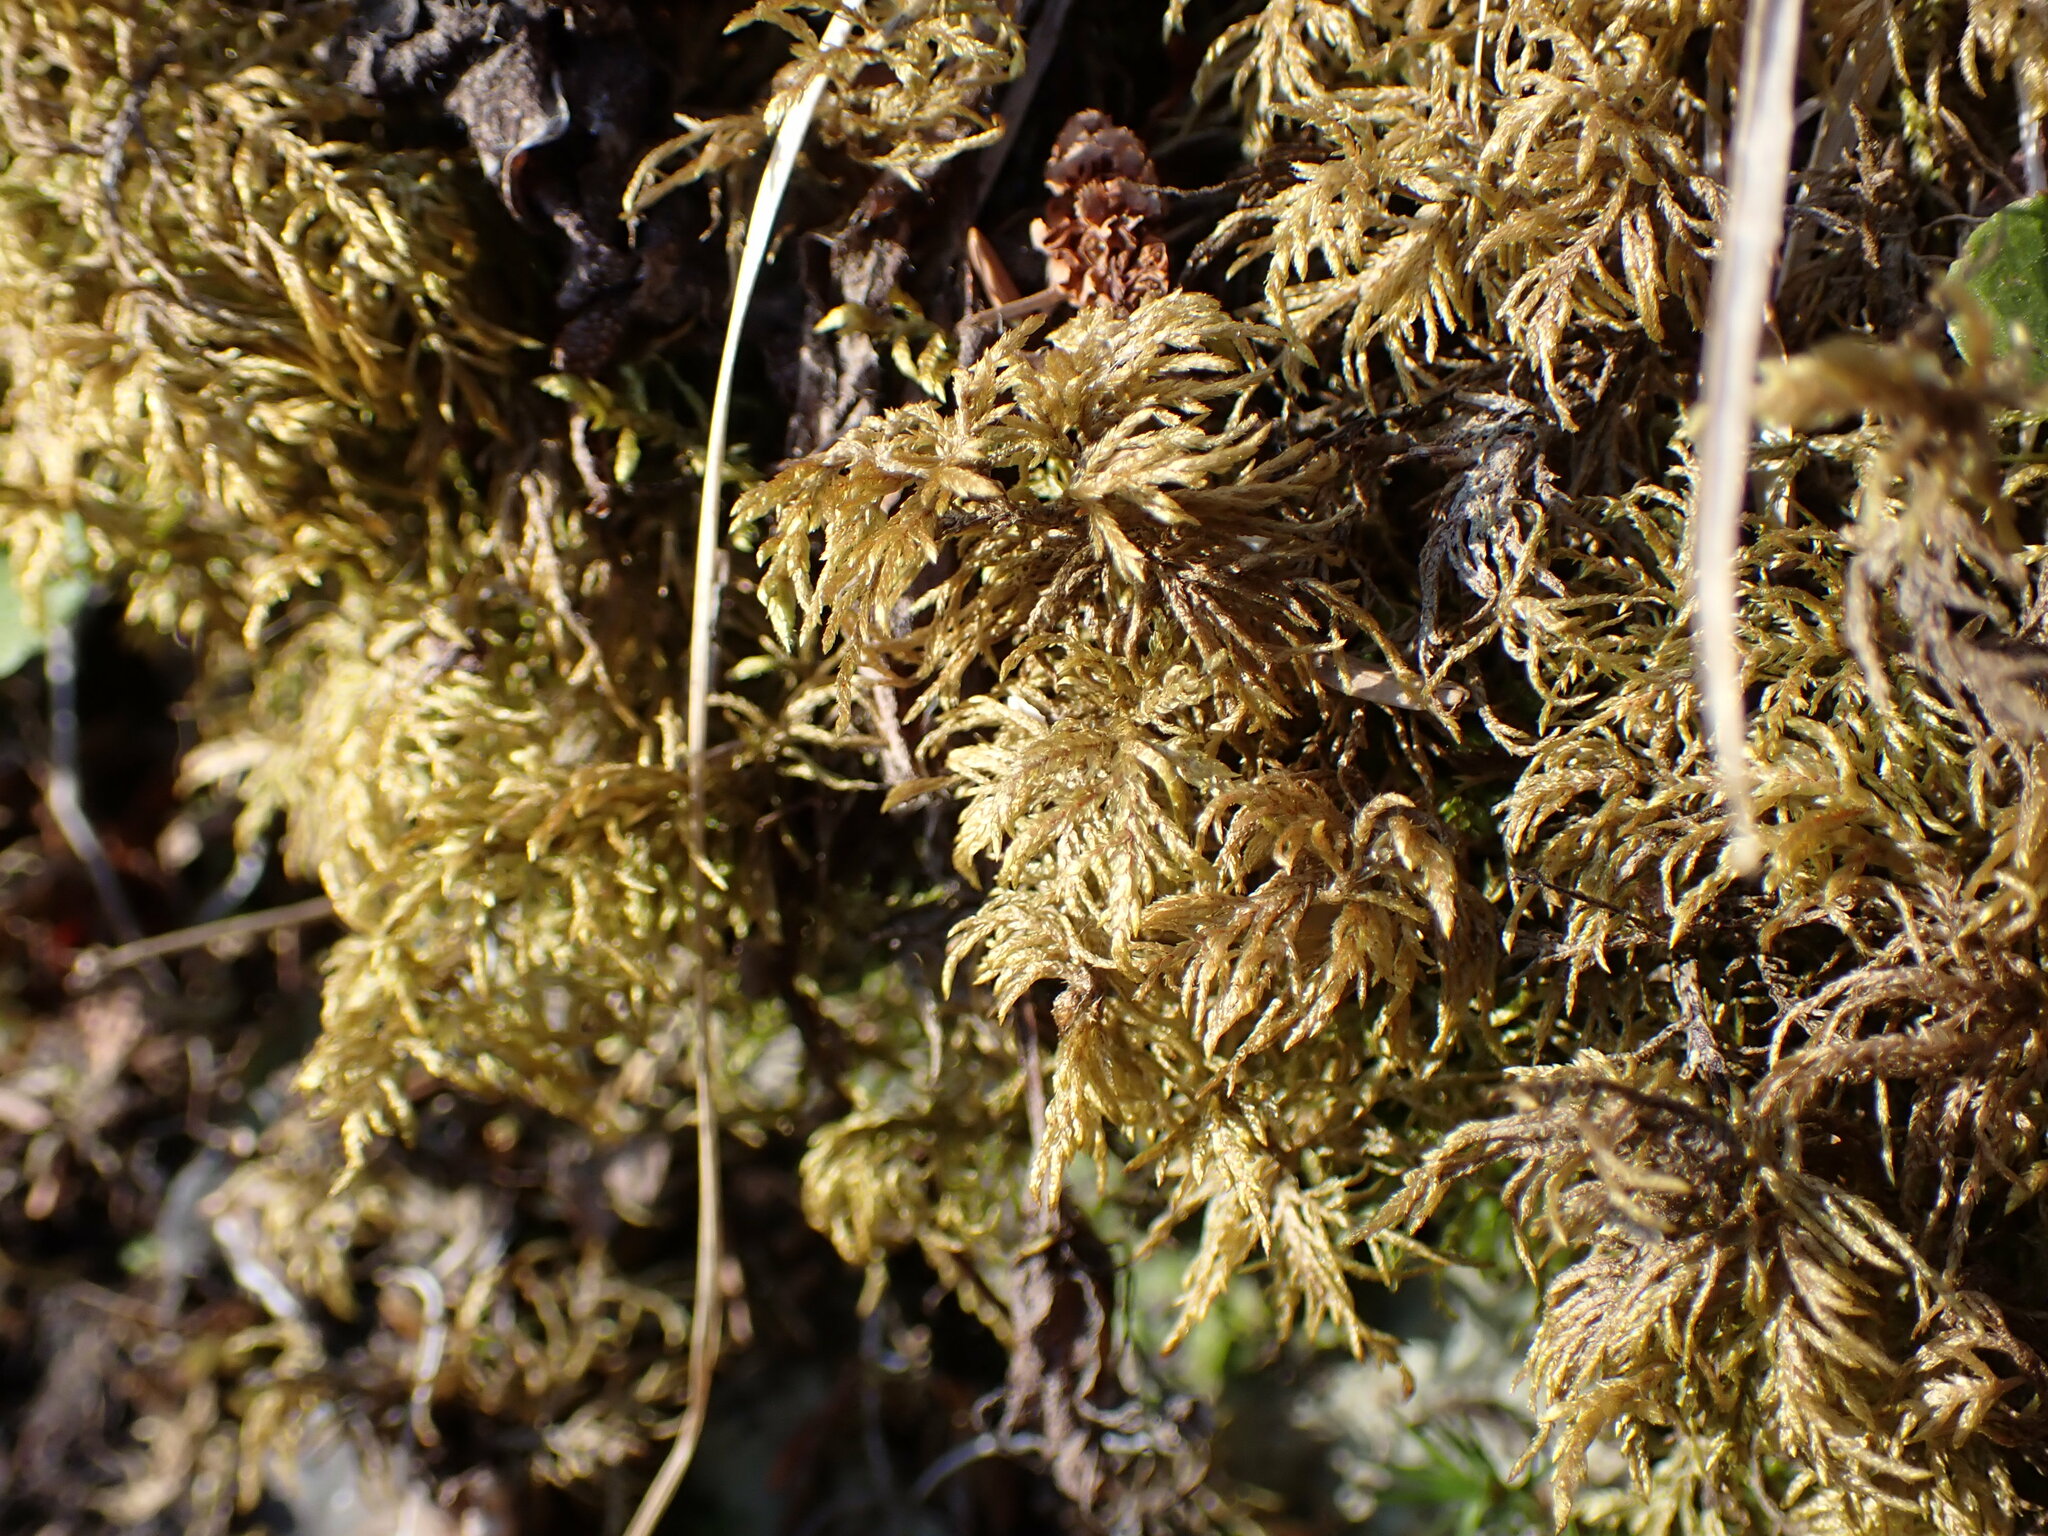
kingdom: Plantae
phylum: Bryophyta
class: Bryopsida
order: Hypnales
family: Hylocomiaceae
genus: Hylocomium
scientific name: Hylocomium splendens
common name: Stairstep moss
